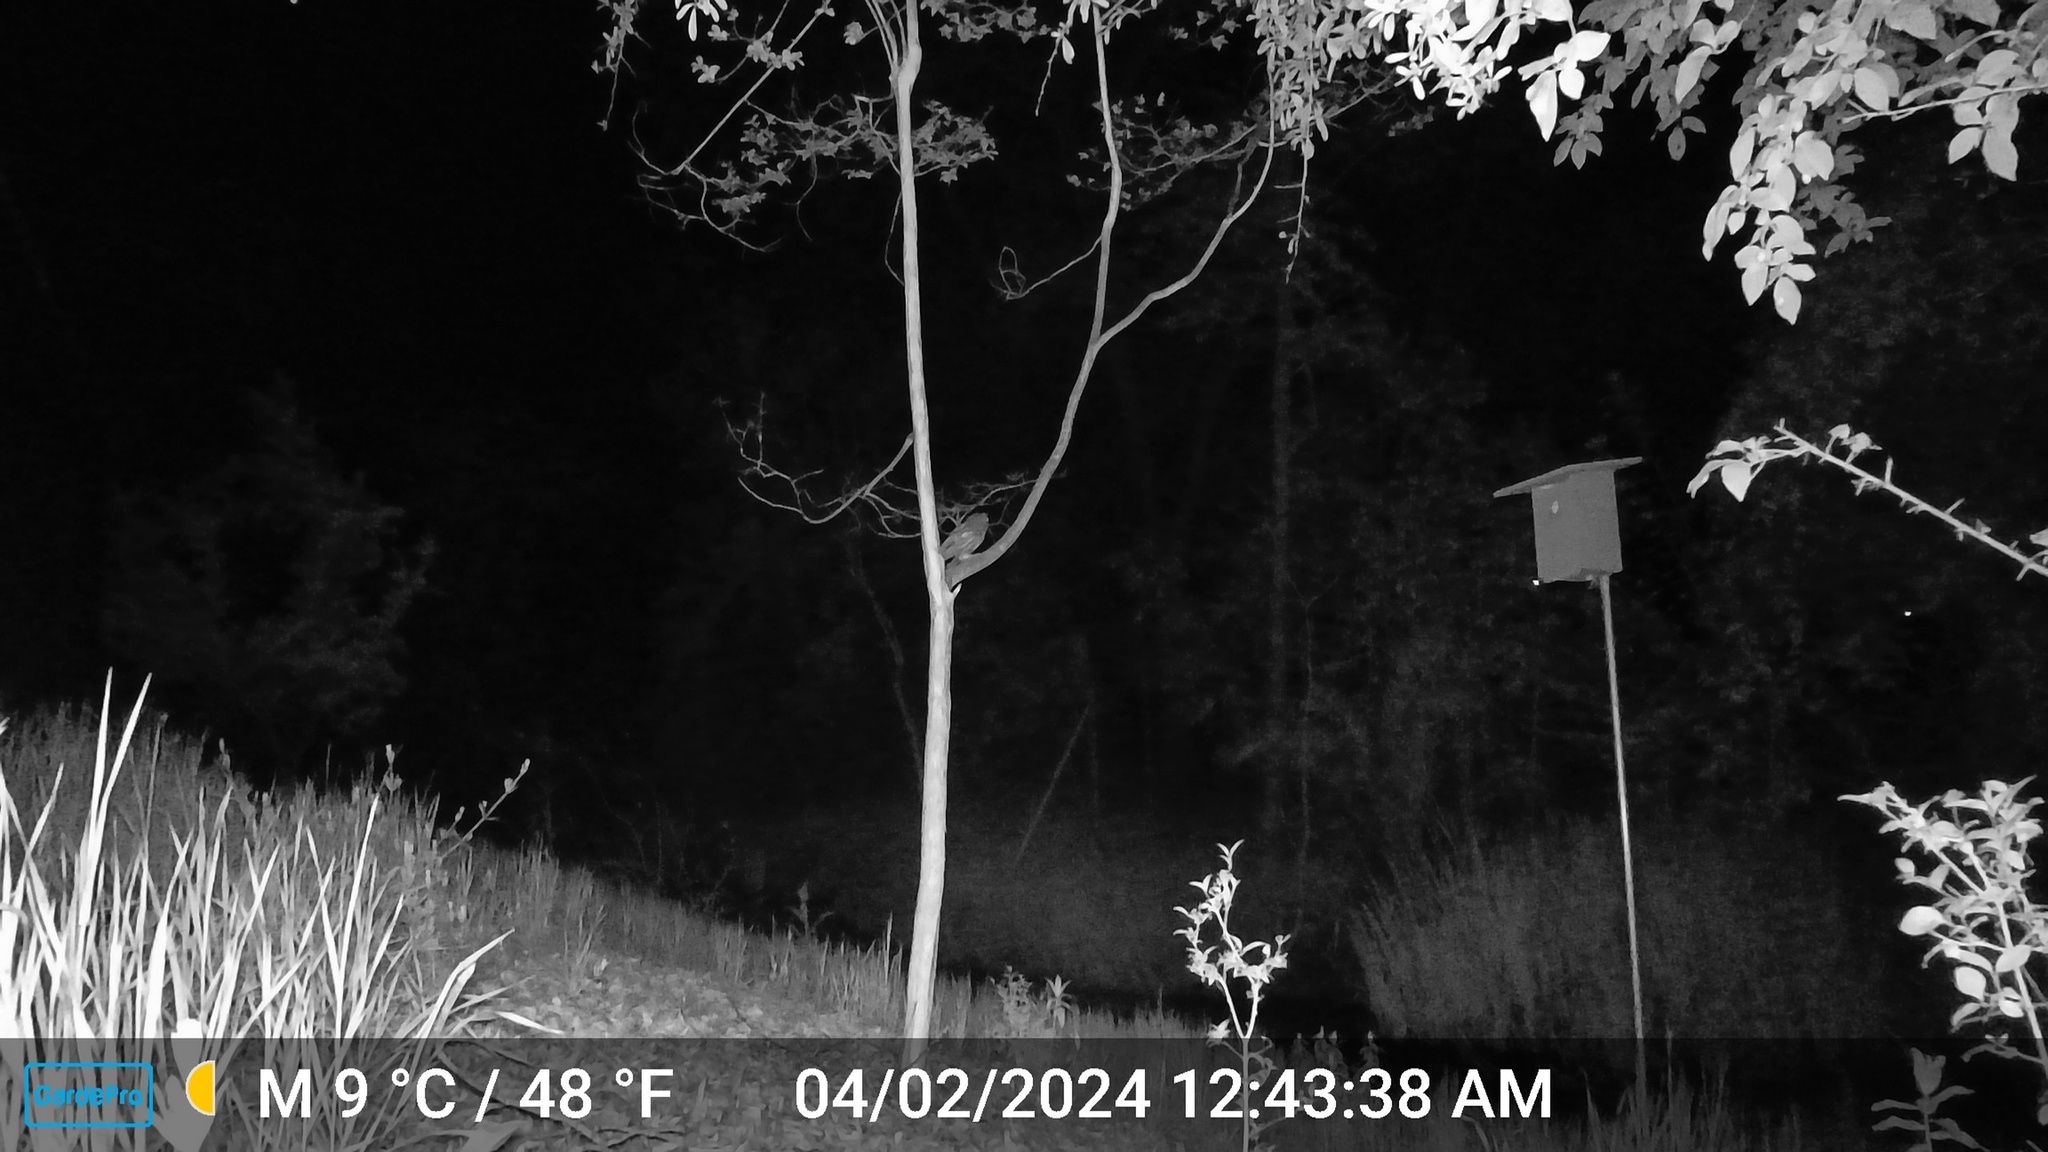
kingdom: Animalia
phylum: Chordata
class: Aves
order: Strigiformes
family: Strigidae
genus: Megascops
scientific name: Megascops kennicottii
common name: Western screech-owl
